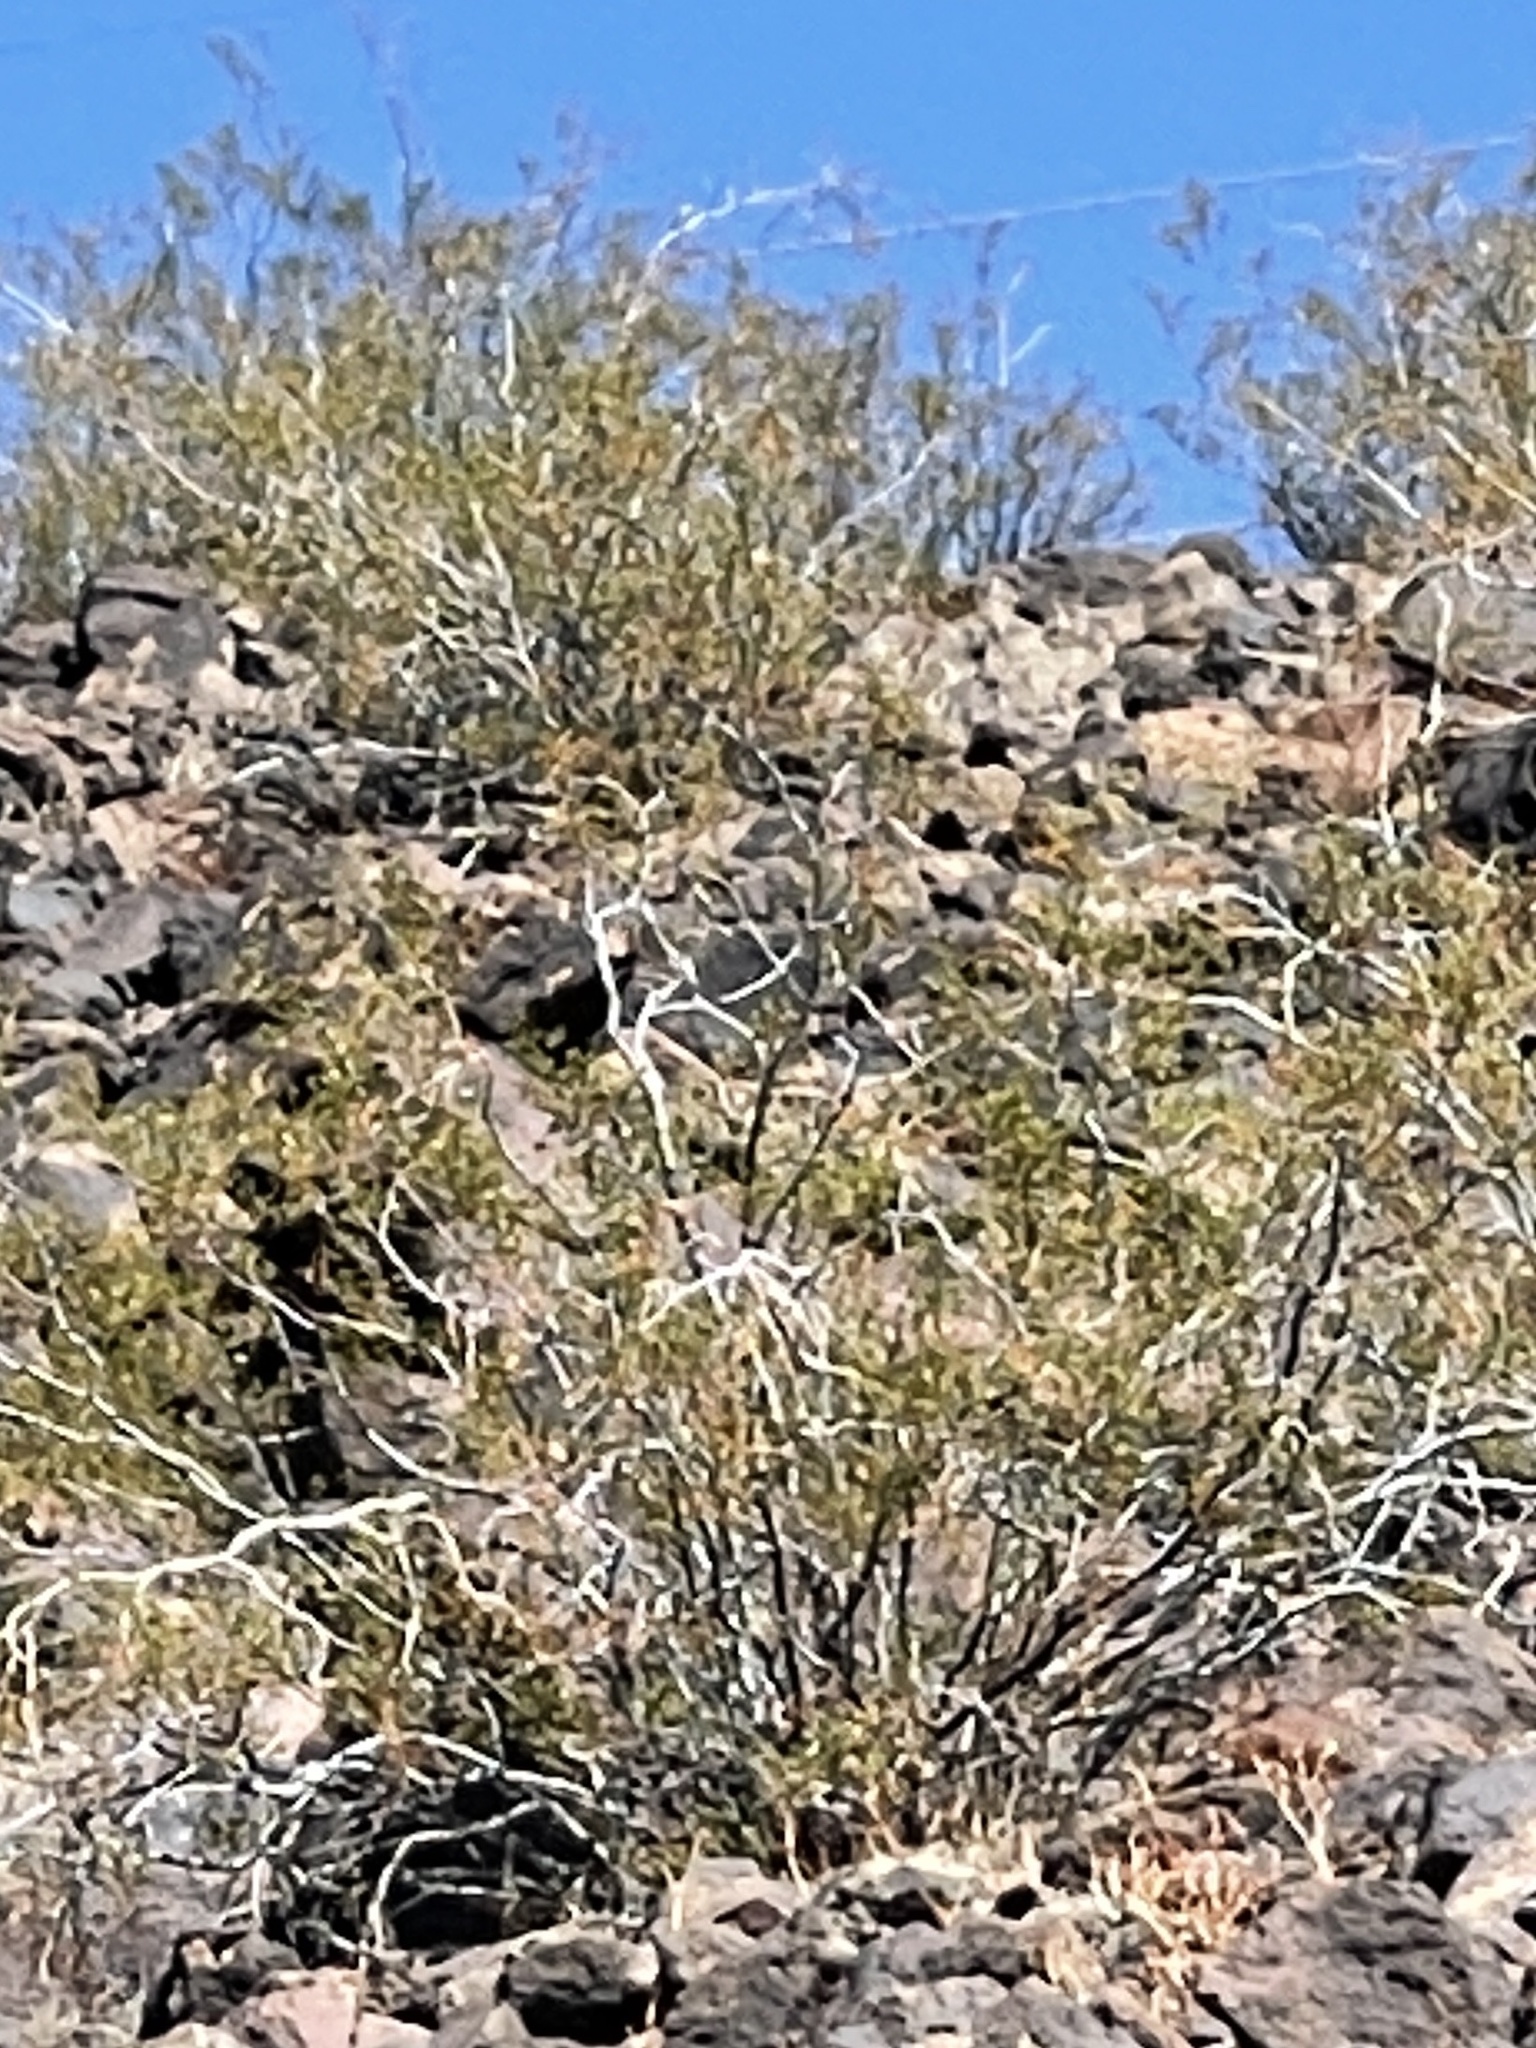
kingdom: Plantae
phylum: Tracheophyta
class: Magnoliopsida
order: Zygophyllales
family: Zygophyllaceae
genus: Larrea
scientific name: Larrea tridentata
